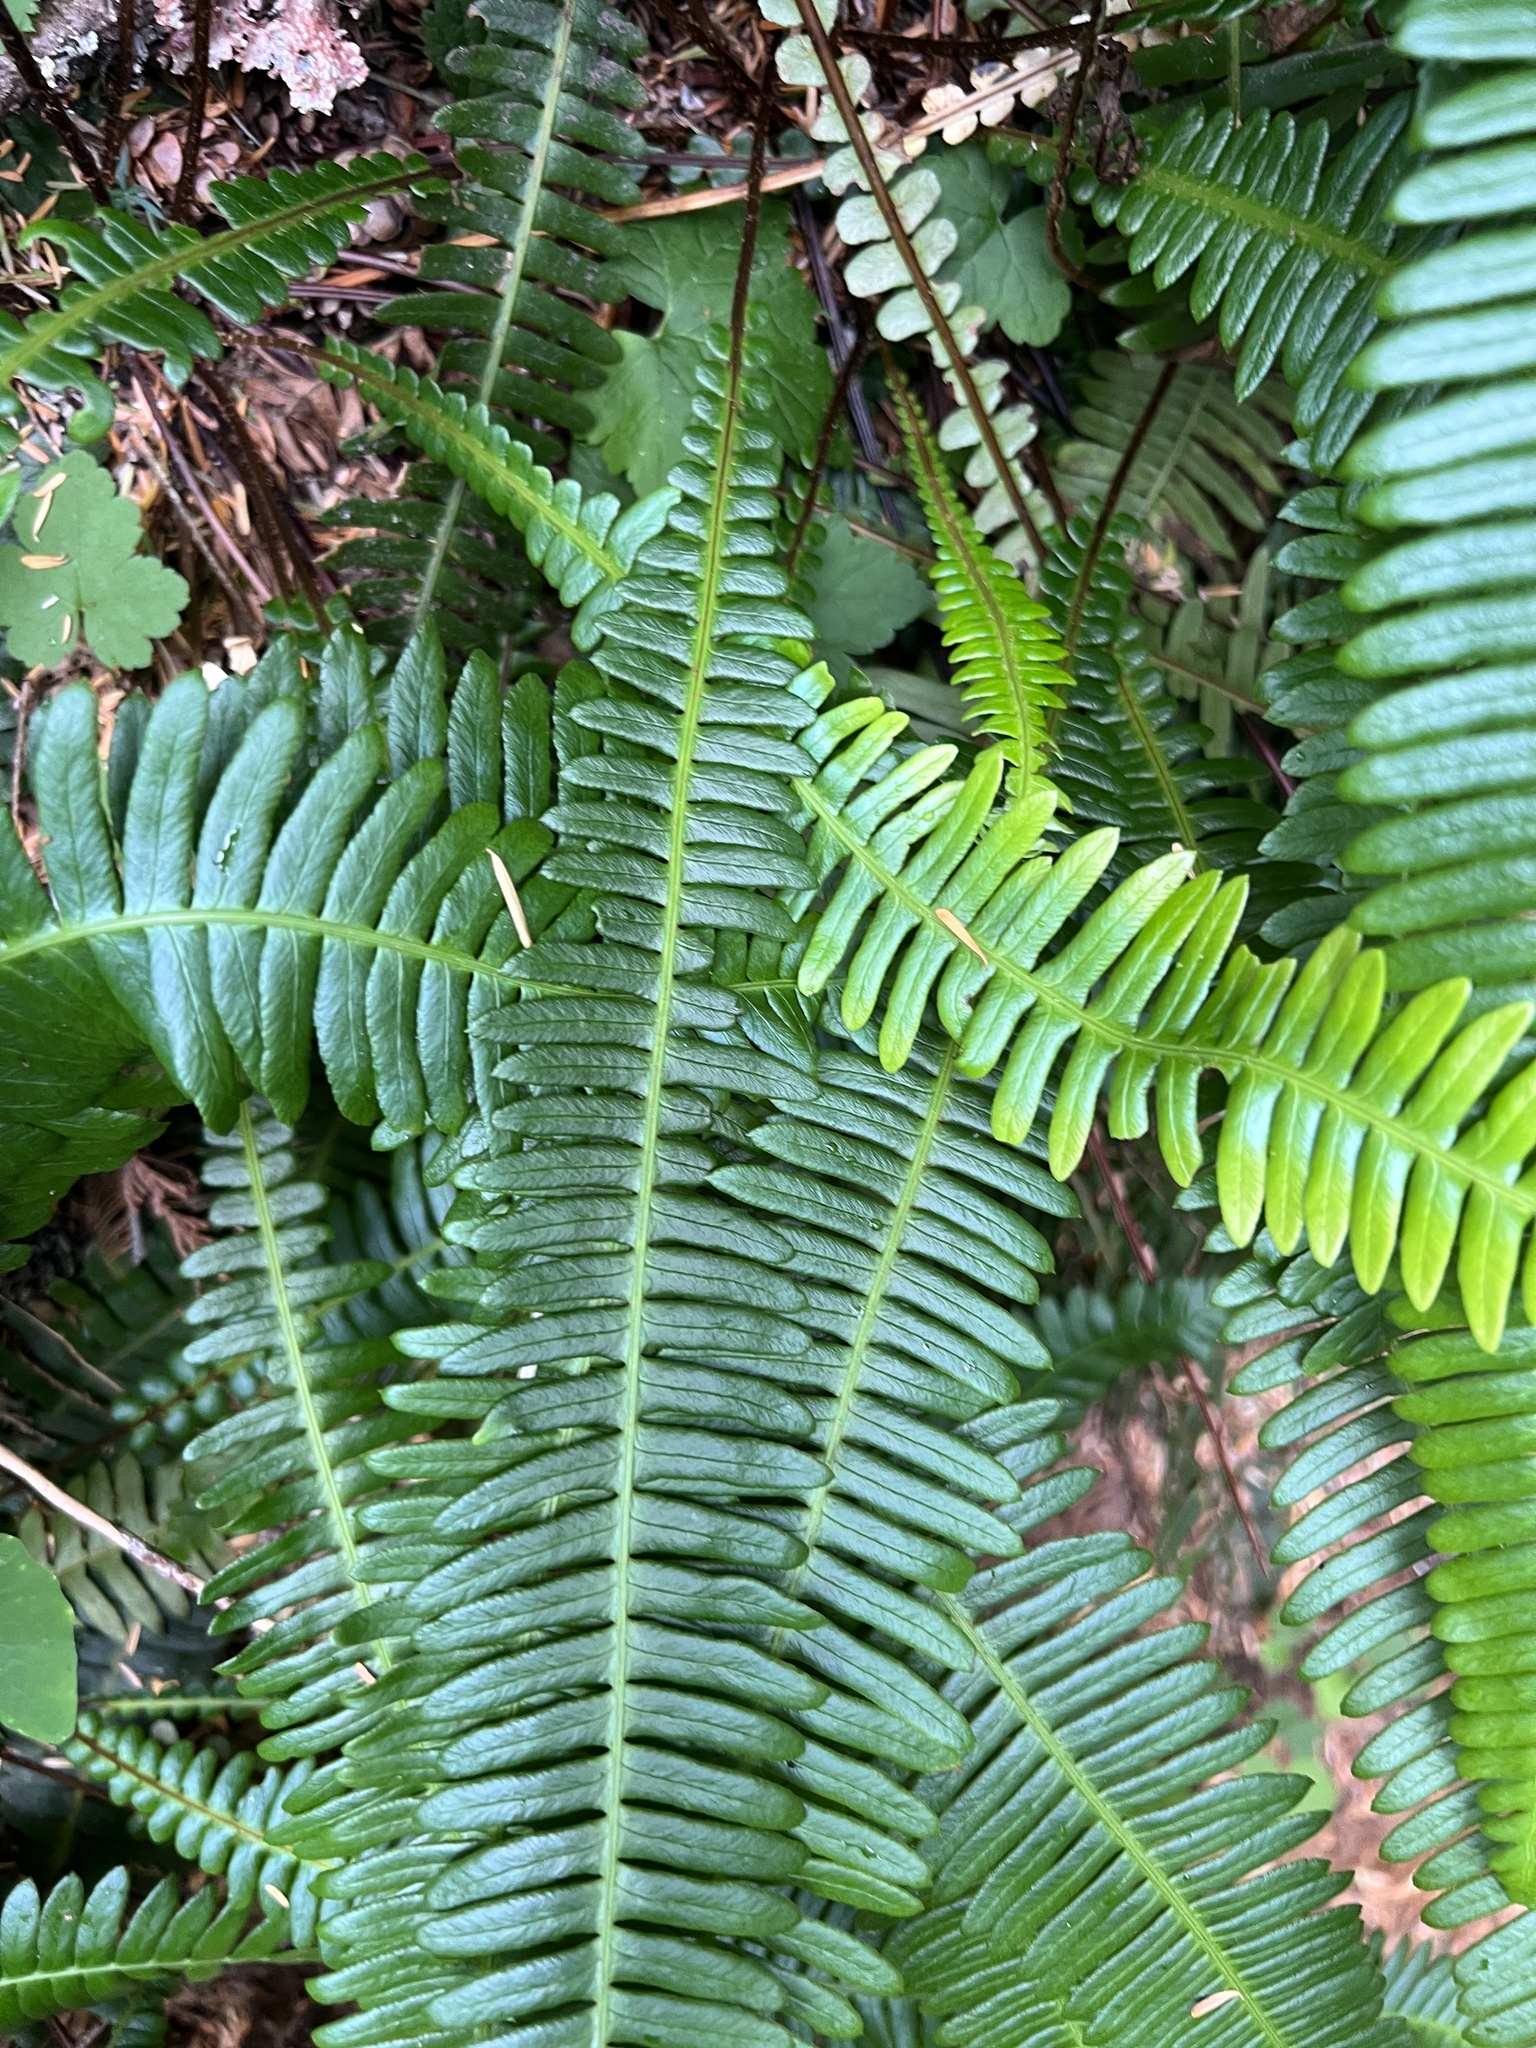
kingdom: Plantae
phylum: Tracheophyta
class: Polypodiopsida
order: Polypodiales
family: Blechnaceae
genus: Struthiopteris
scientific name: Struthiopteris spicant
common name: Deer fern
